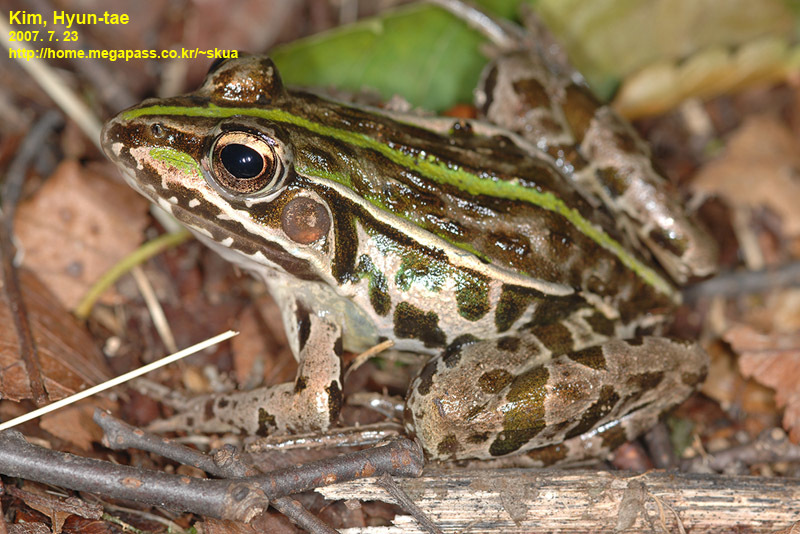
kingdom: Animalia
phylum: Chordata
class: Amphibia
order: Anura
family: Ranidae
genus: Pelophylax
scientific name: Pelophylax nigromaculatus
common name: Black-spotted pond frog
